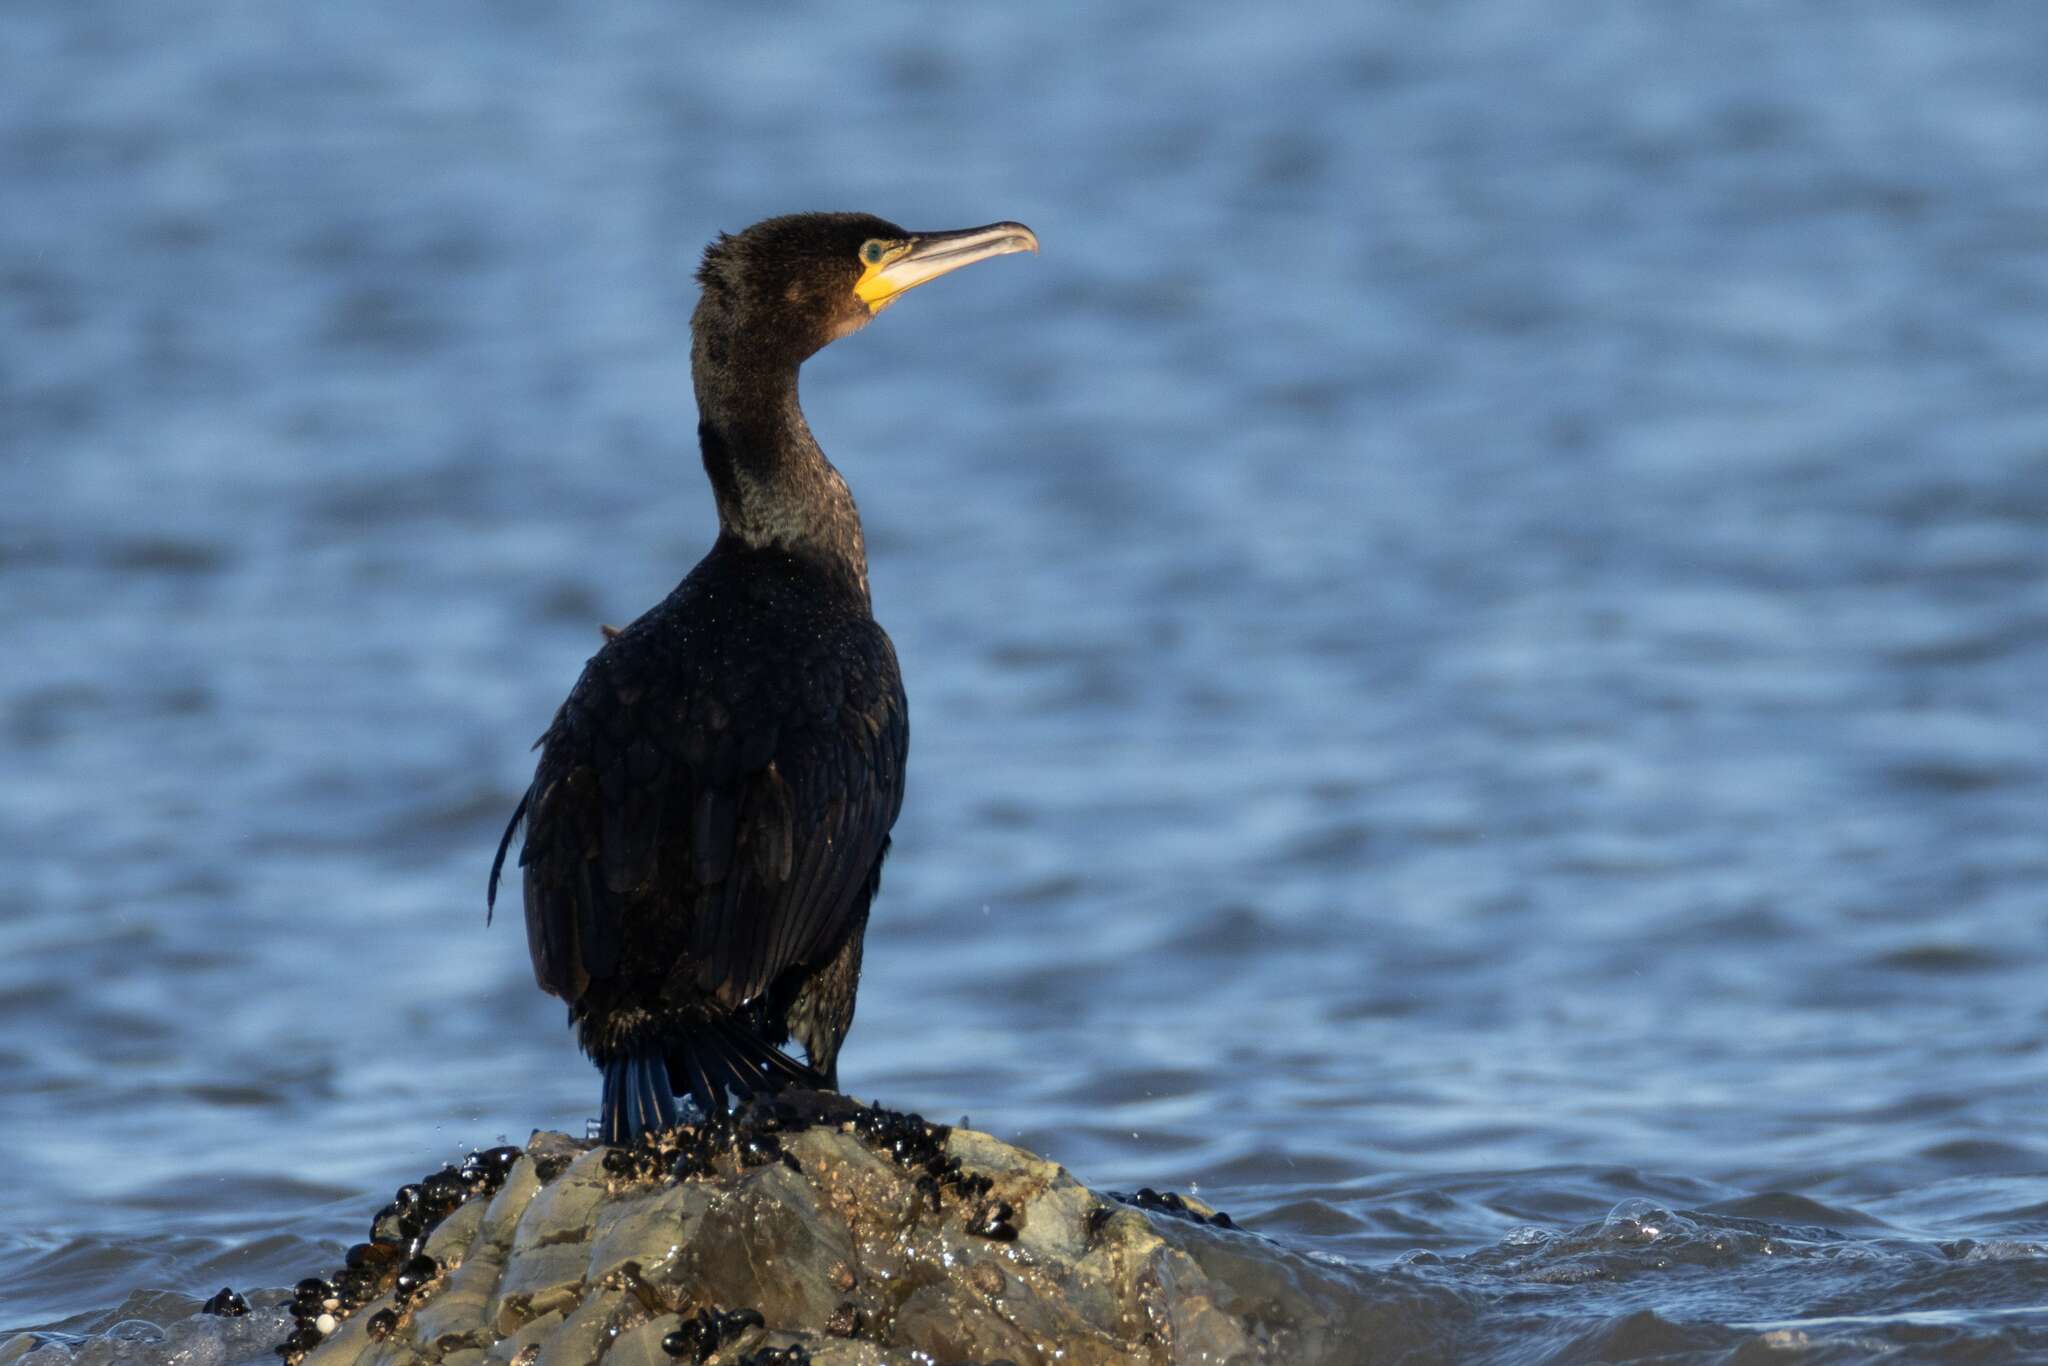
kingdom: Animalia
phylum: Chordata
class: Aves
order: Suliformes
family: Phalacrocoracidae
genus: Phalacrocorax
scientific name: Phalacrocorax carbo
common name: Great cormorant
